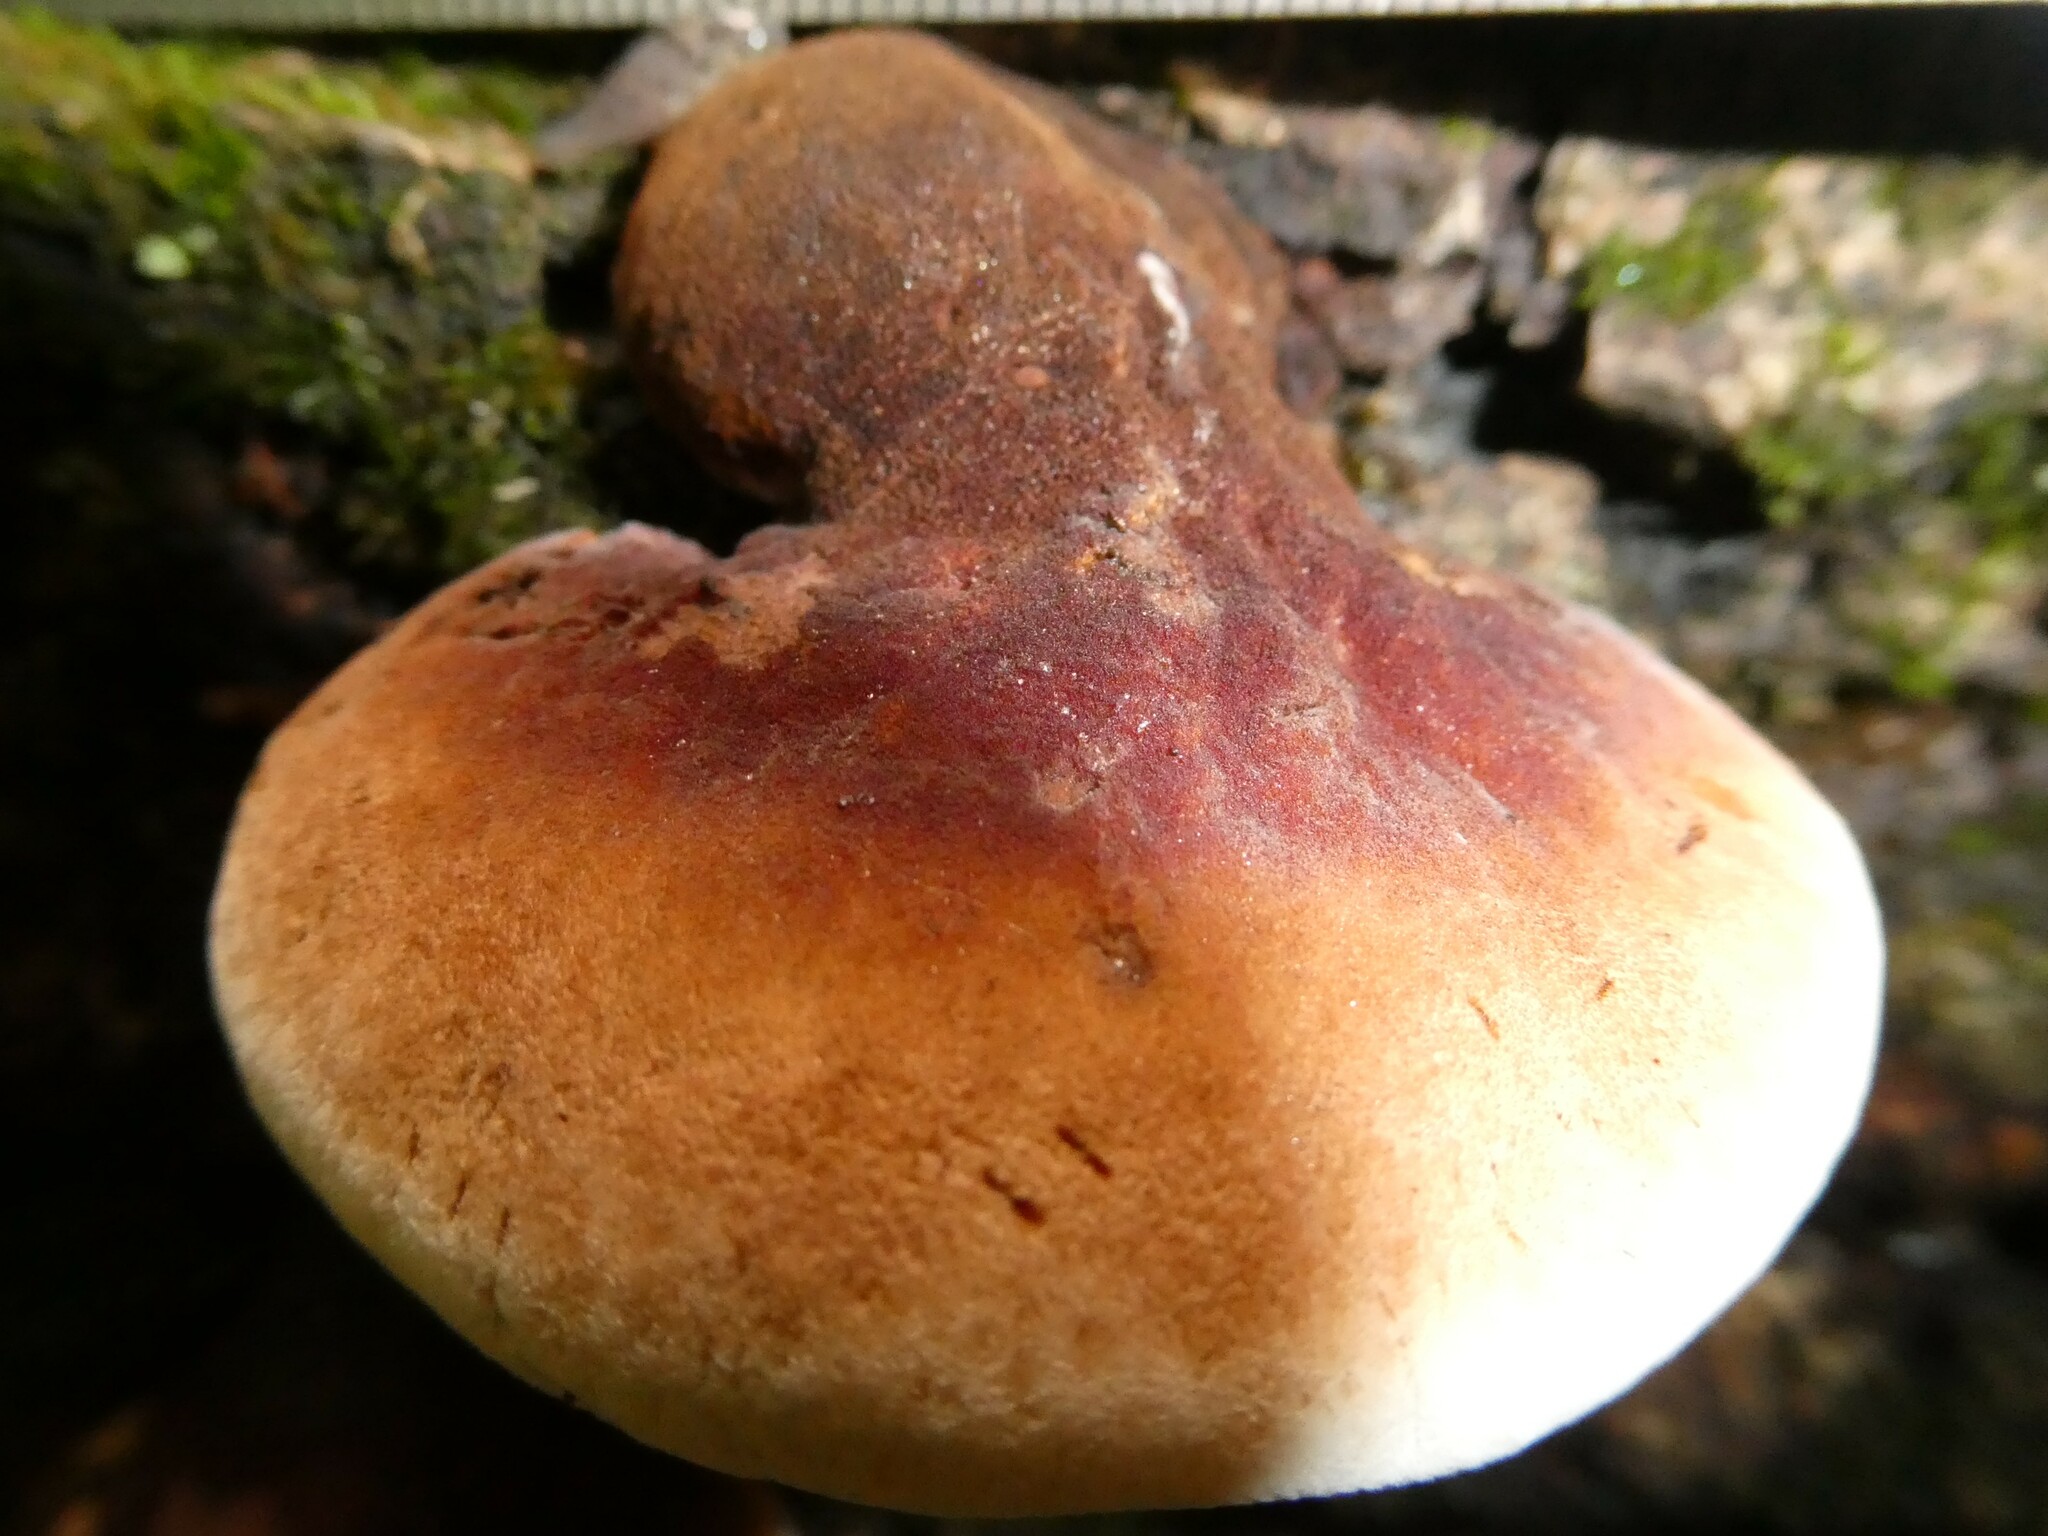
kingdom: Fungi
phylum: Basidiomycota
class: Agaricomycetes
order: Polyporales
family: Ischnodermataceae
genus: Ischnoderma
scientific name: Ischnoderma resinosum
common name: Resinous polypore
